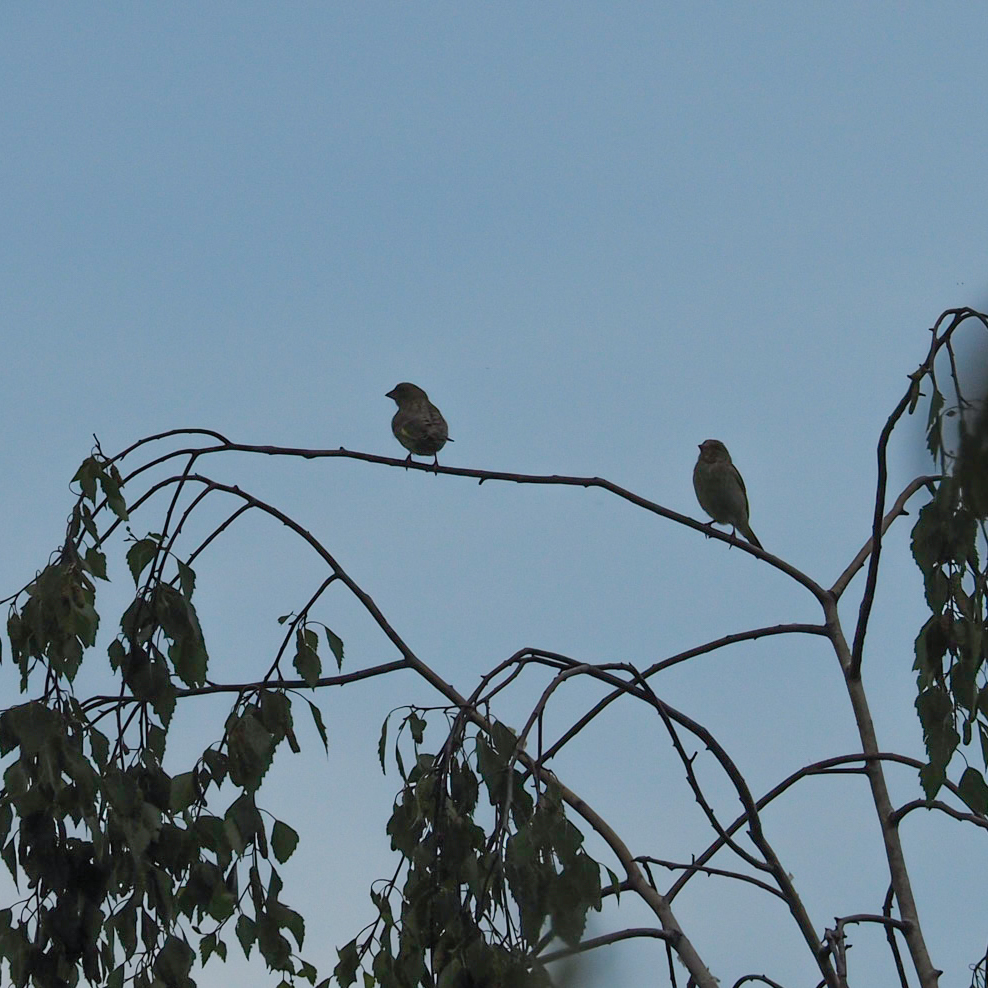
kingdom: Plantae
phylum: Tracheophyta
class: Liliopsida
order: Poales
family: Poaceae
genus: Chloris
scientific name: Chloris chloris
